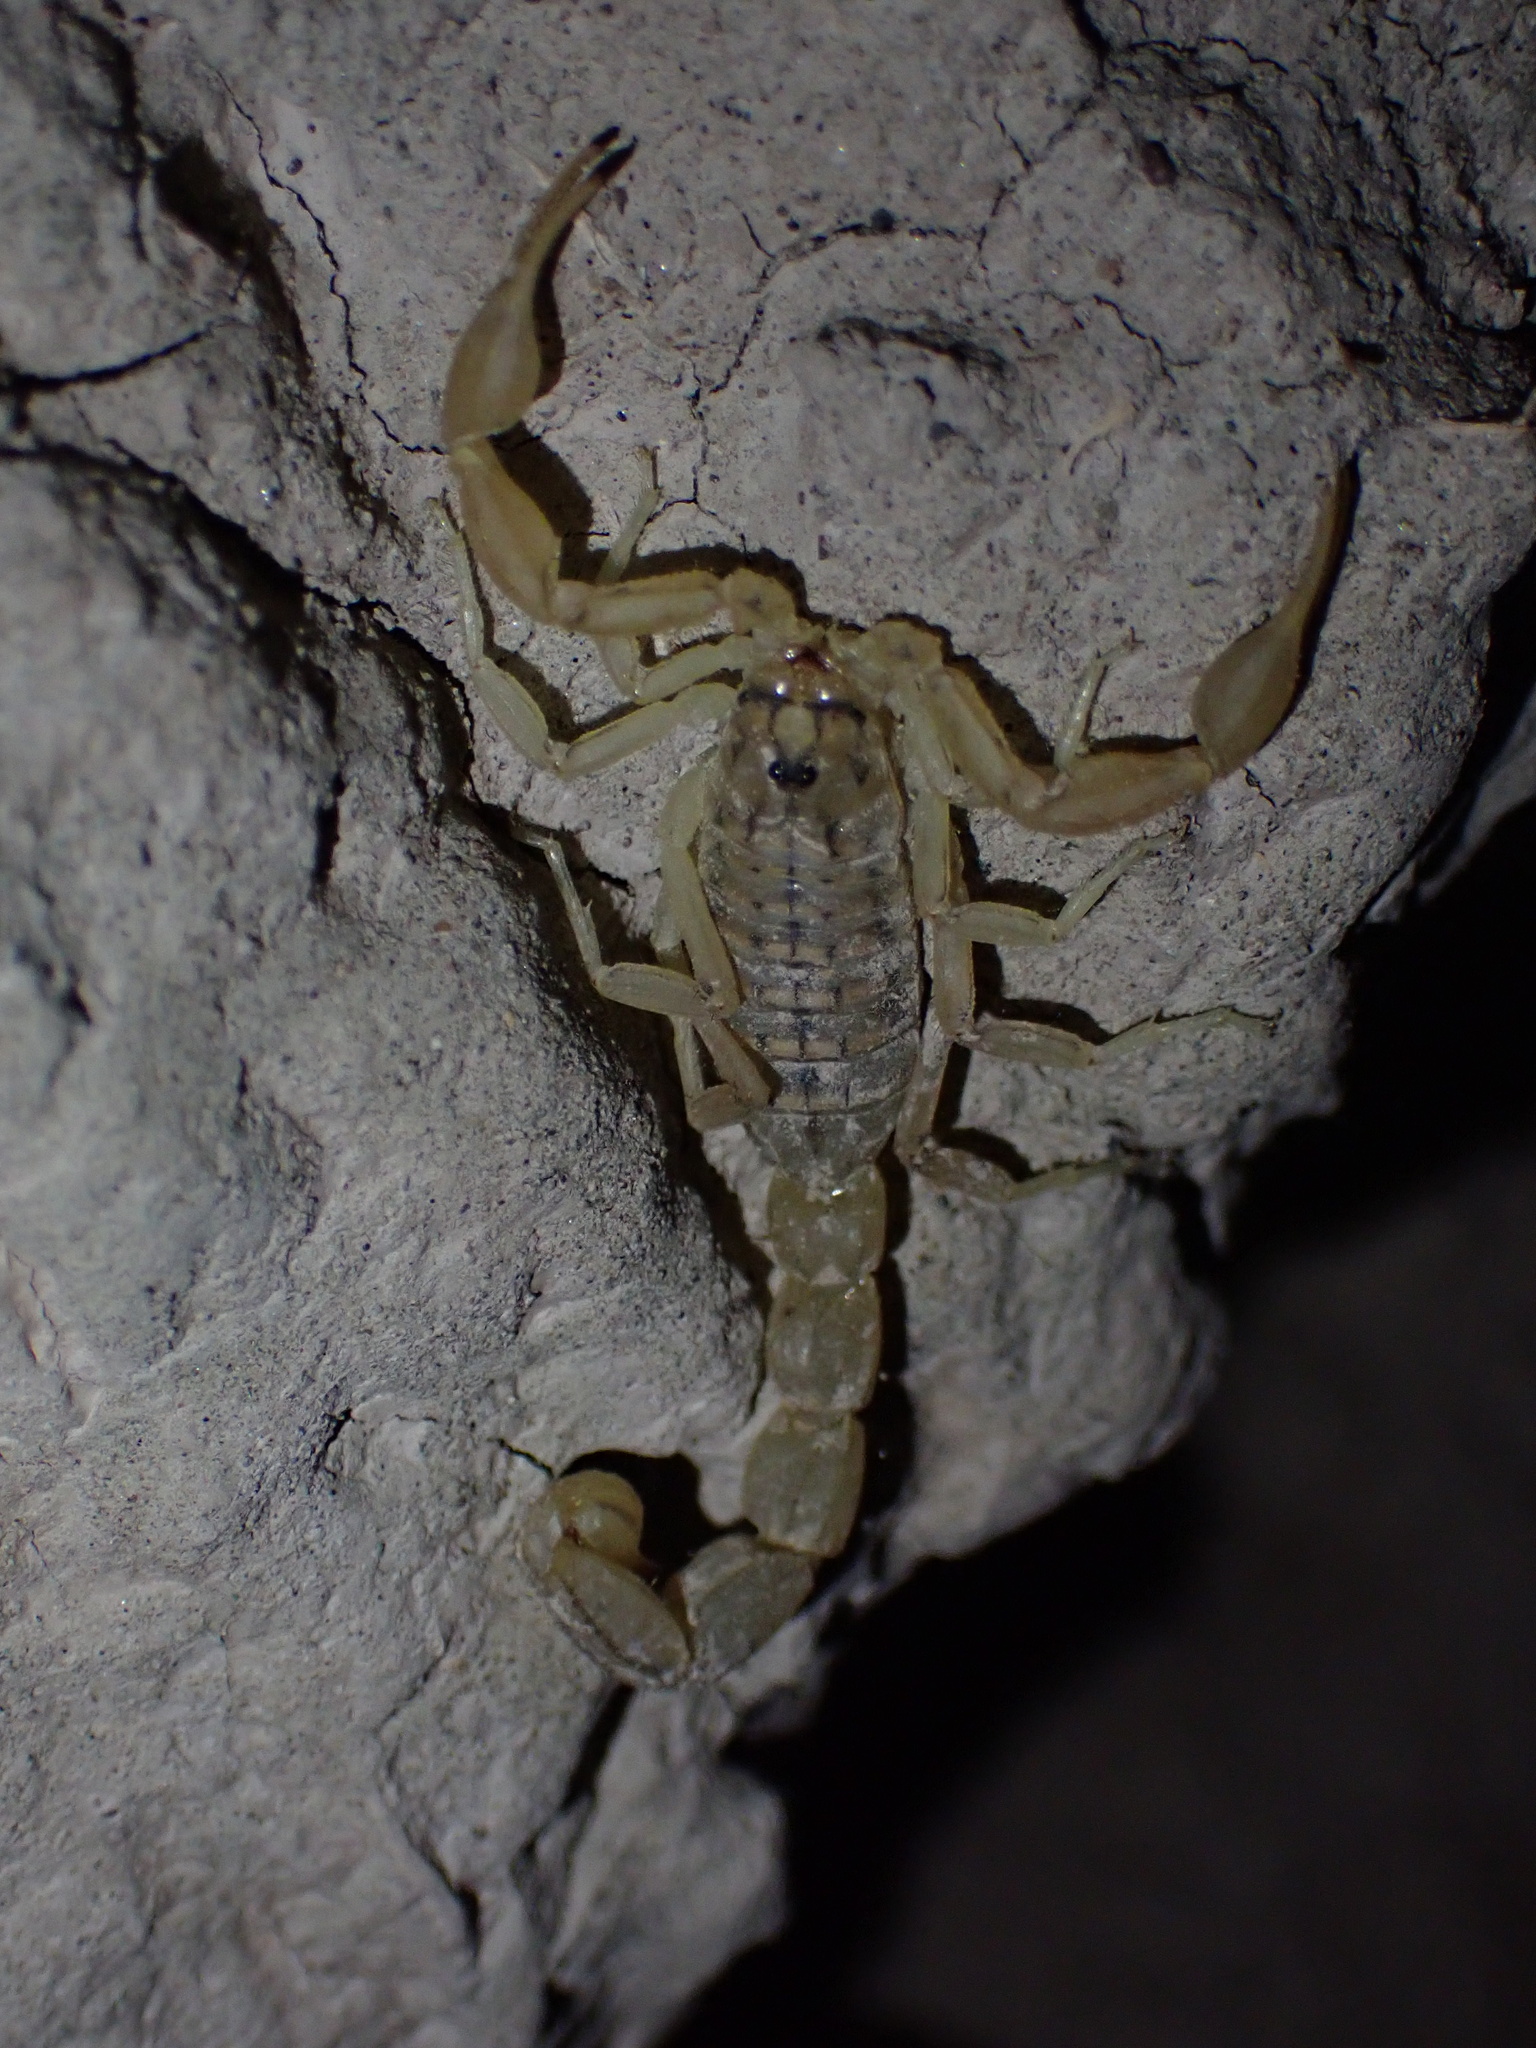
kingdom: Animalia
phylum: Arthropoda
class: Arachnida
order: Scorpiones
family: Buthidae
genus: Mesobuthus
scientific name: Mesobuthus mirshamsii
